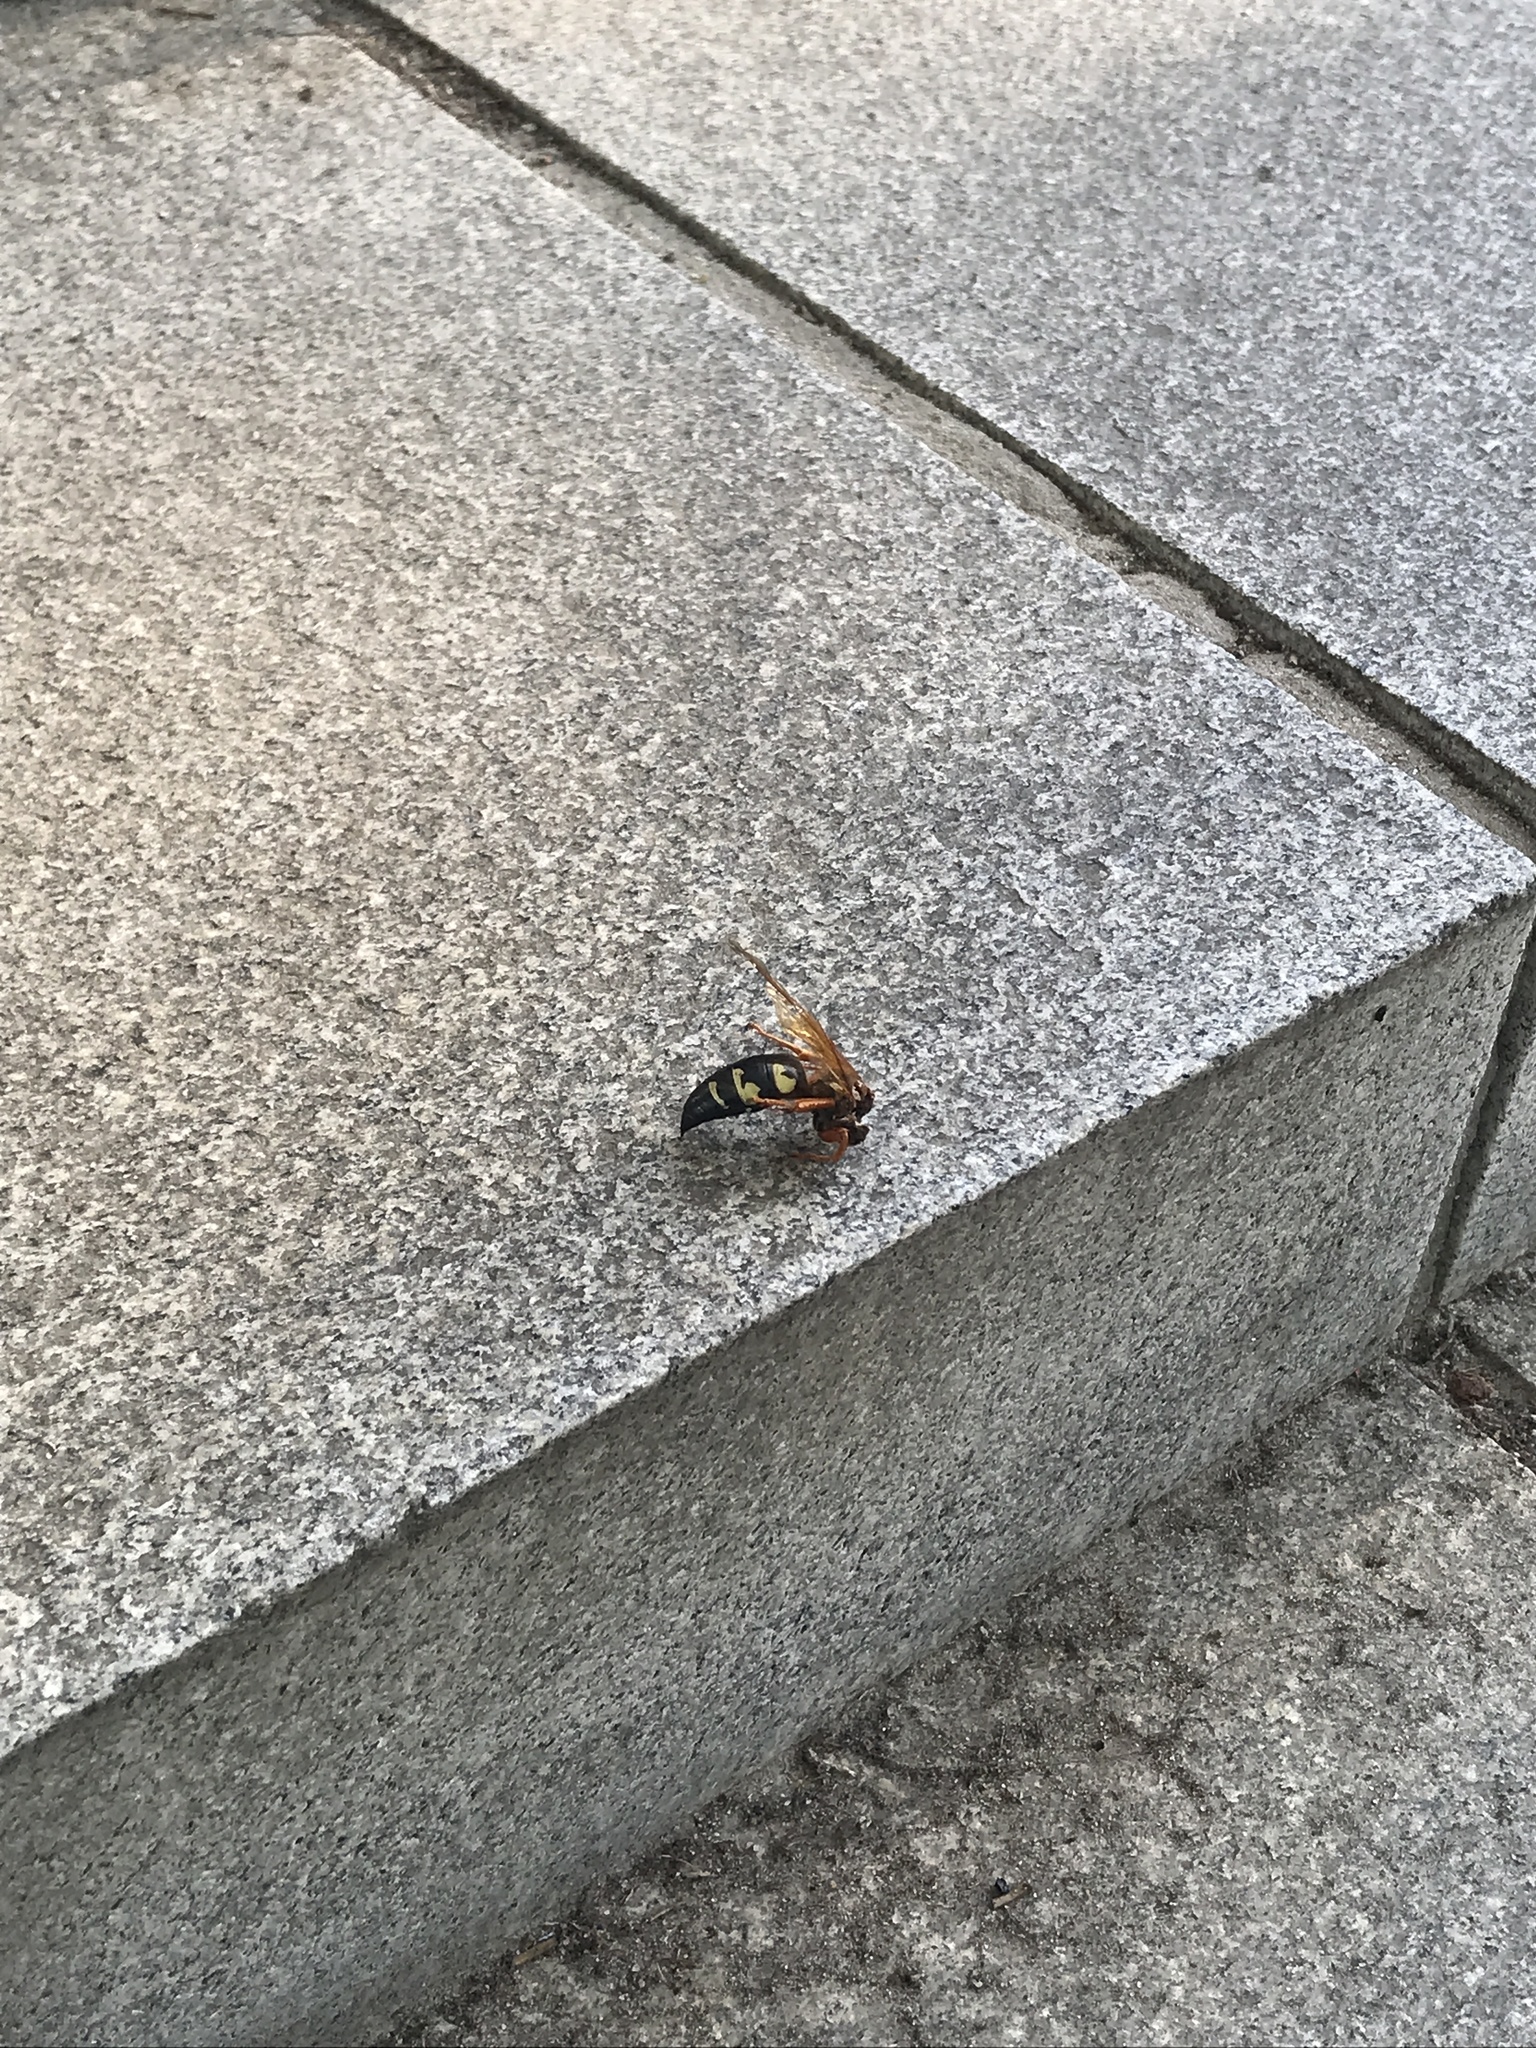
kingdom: Animalia
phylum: Arthropoda
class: Insecta
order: Hymenoptera
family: Crabronidae
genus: Sphecius
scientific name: Sphecius speciosus
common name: Cicada killer
